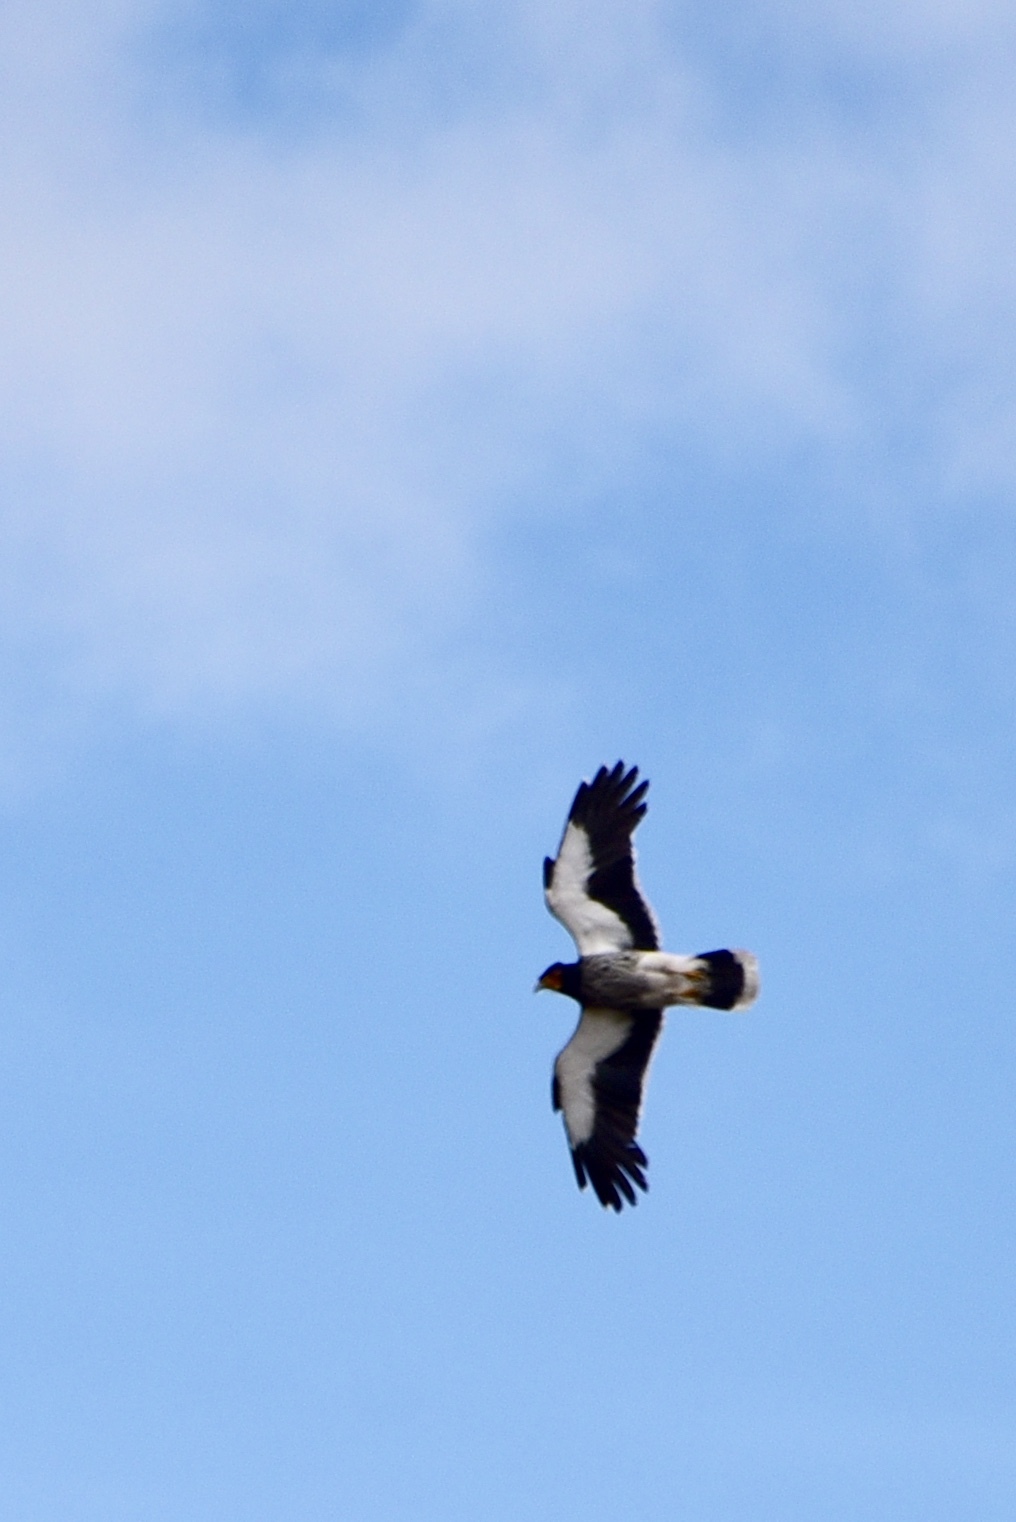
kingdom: Animalia
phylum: Chordata
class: Aves
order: Falconiformes
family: Falconidae
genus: Daptrius
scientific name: Daptrius
